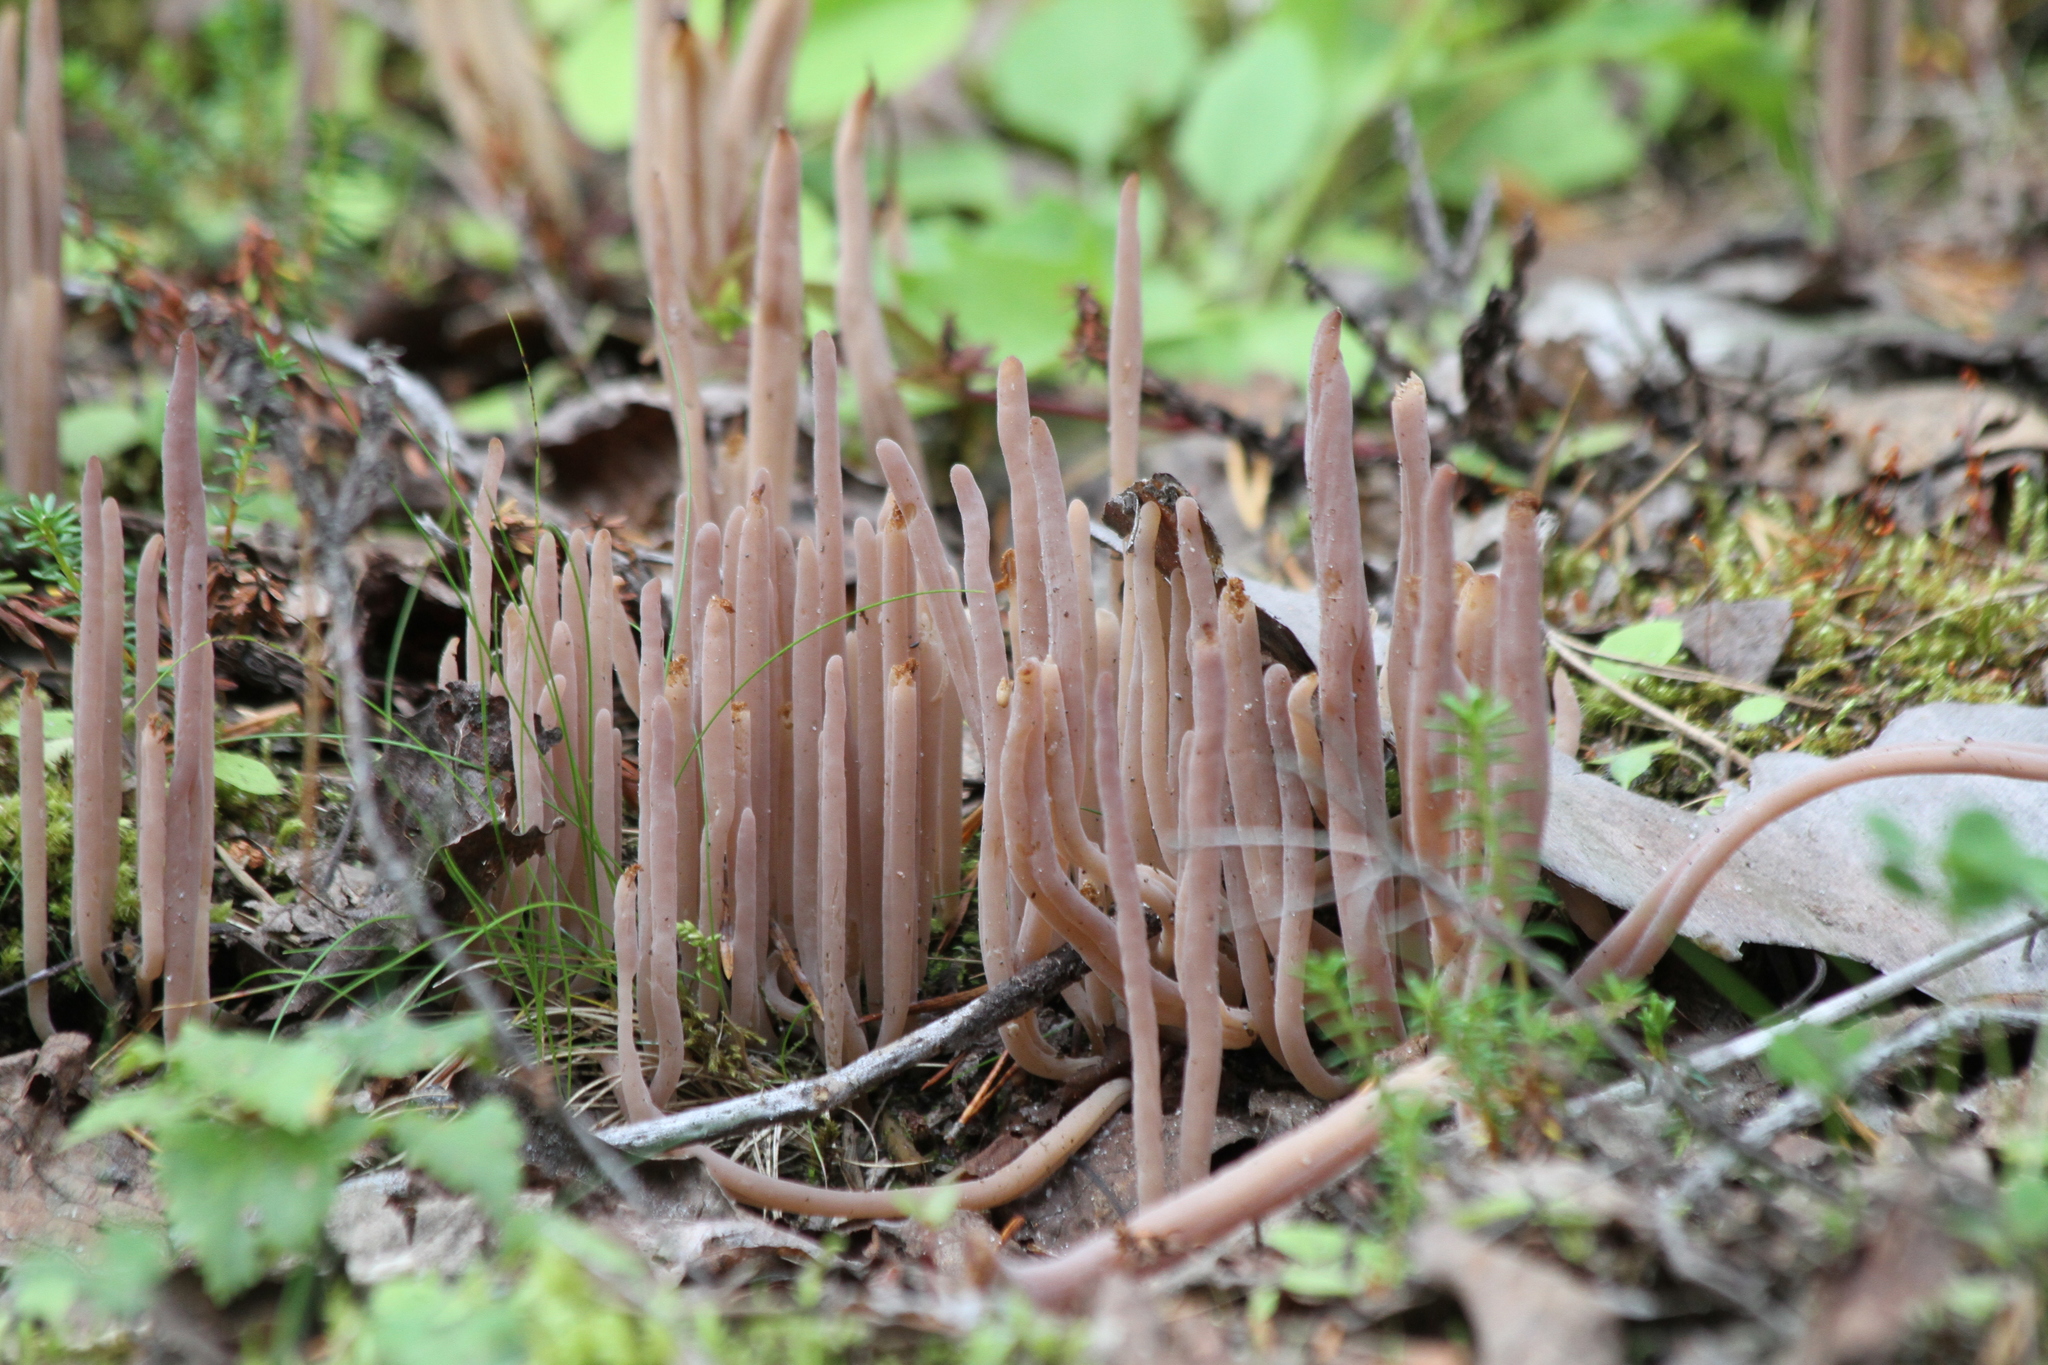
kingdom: Fungi
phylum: Basidiomycota
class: Agaricomycetes
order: Hymenochaetales
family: Rickenellaceae
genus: Alloclavaria
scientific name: Alloclavaria purpurea
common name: Purple spindles
